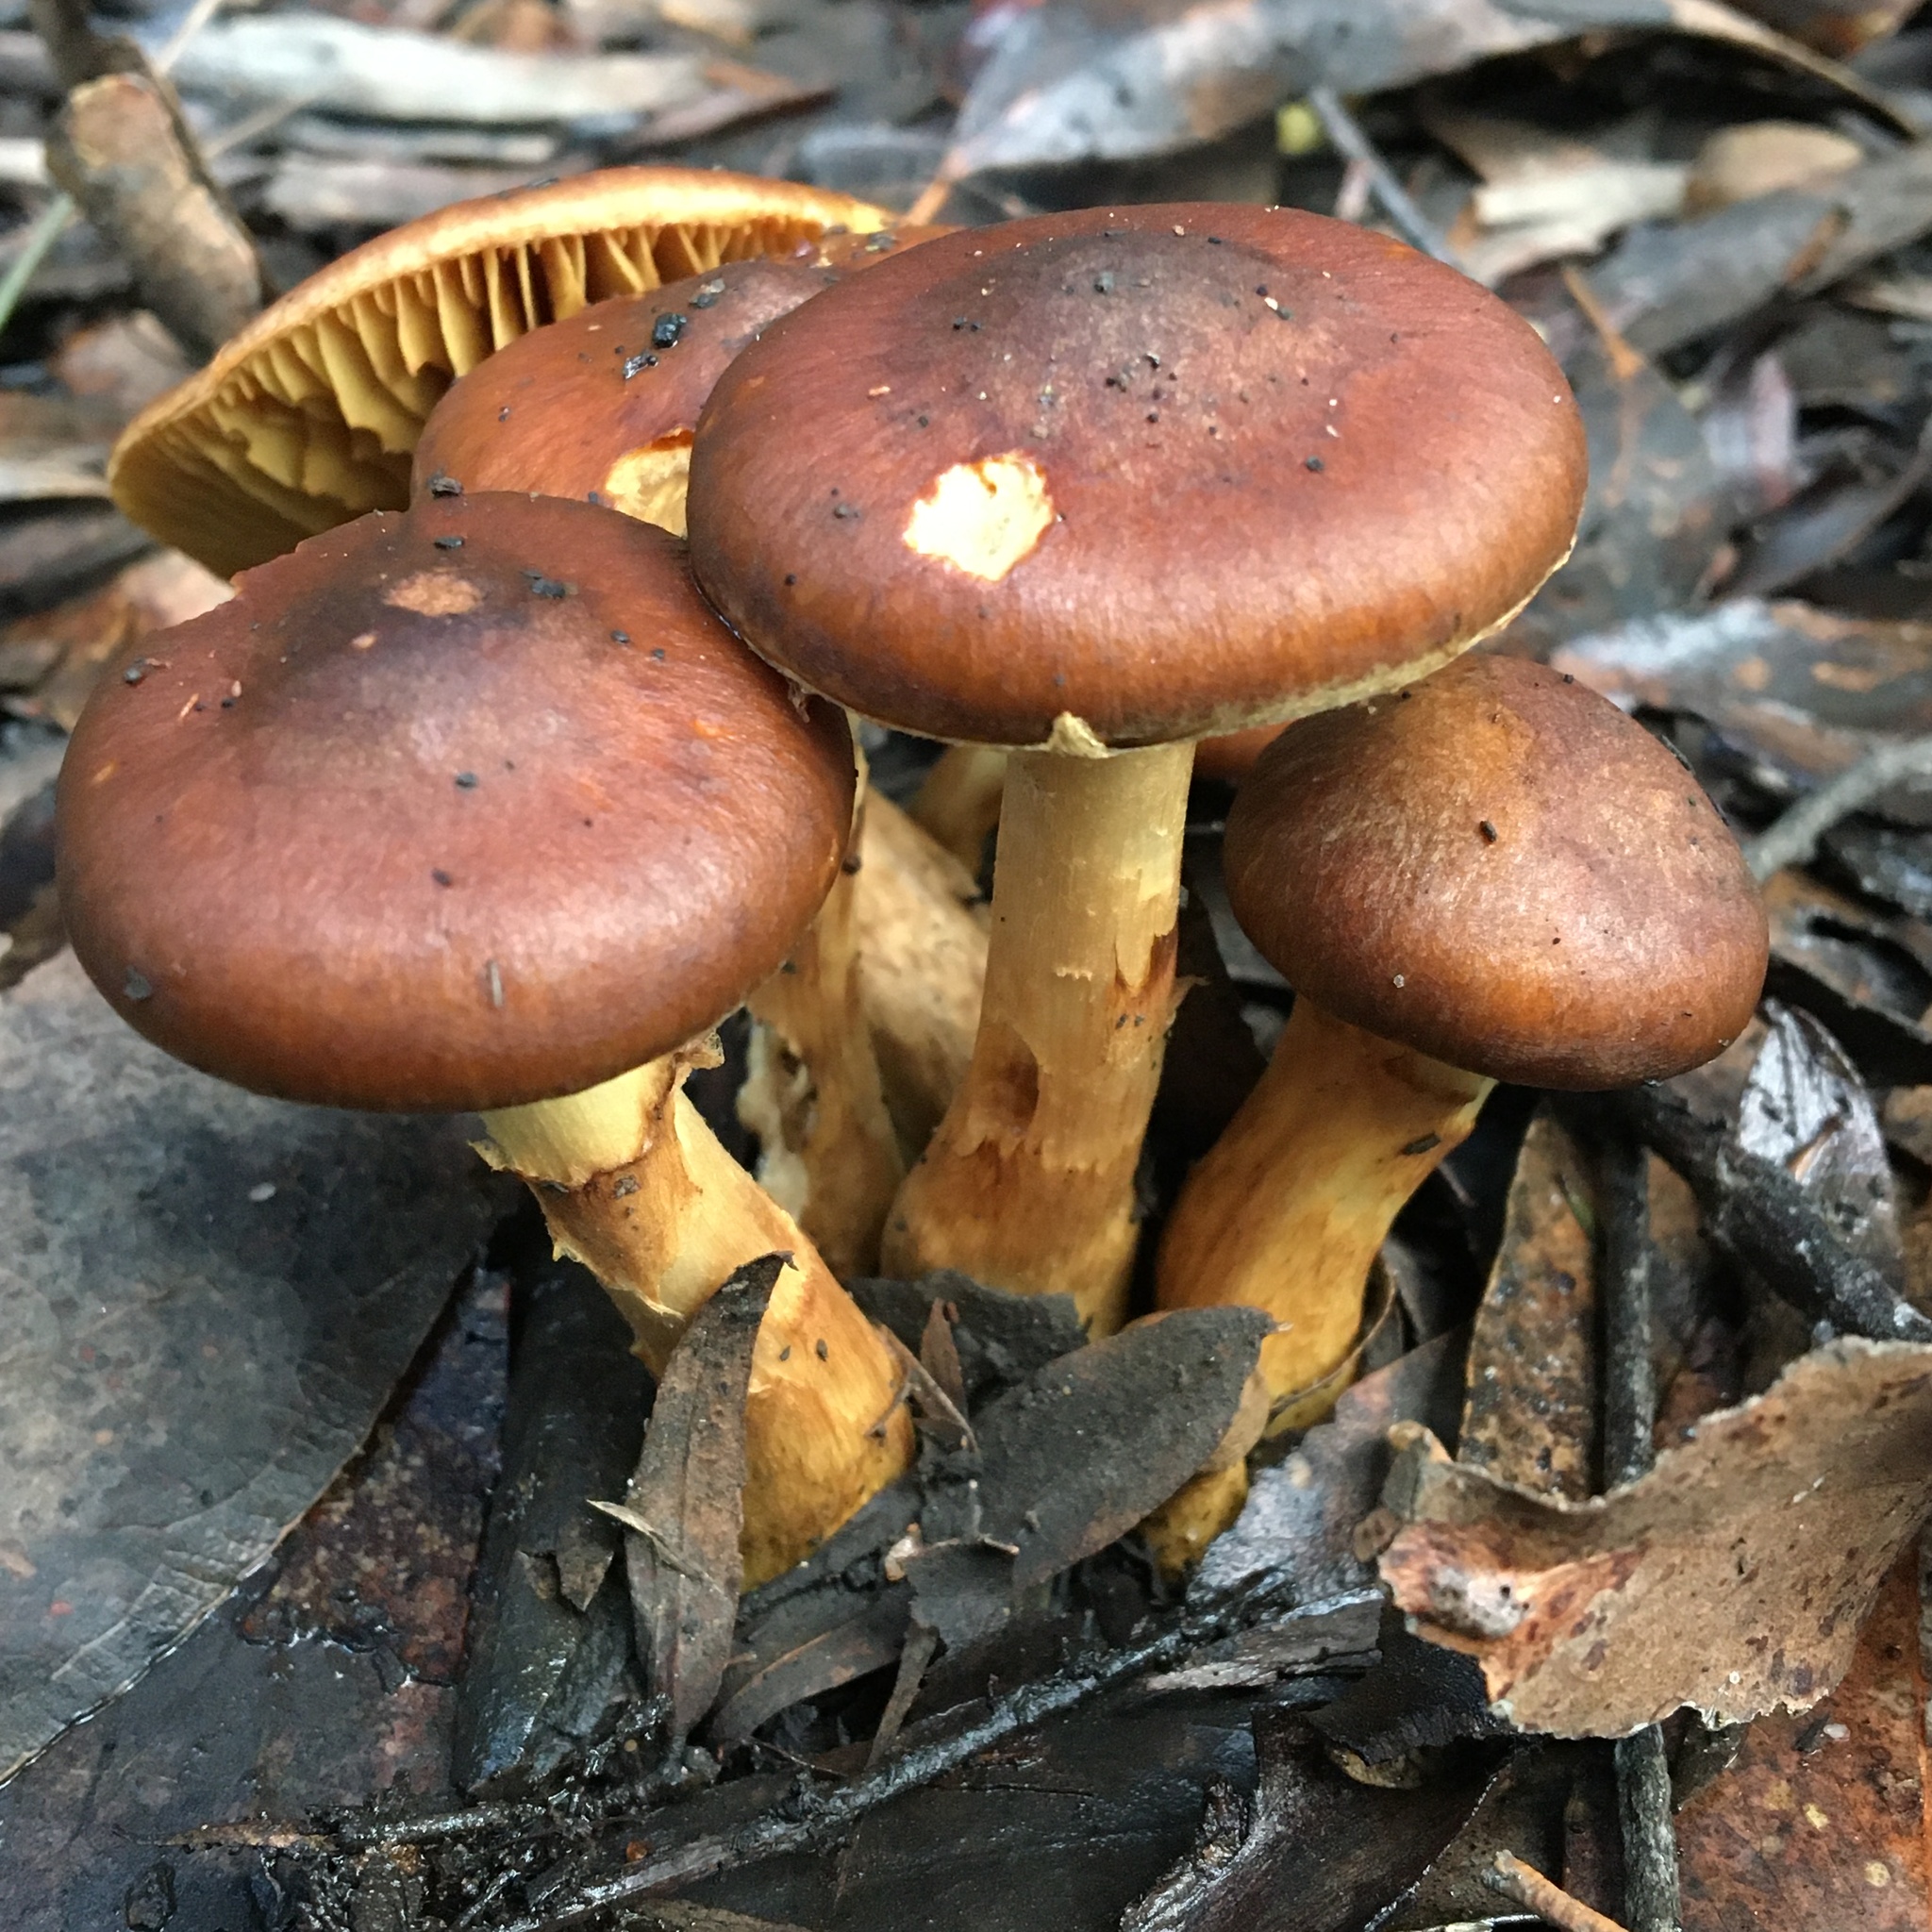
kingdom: Fungi
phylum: Basidiomycota
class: Agaricomycetes
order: Agaricales
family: Cortinariaceae
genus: Cortinarius
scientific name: Cortinarius clelandii
